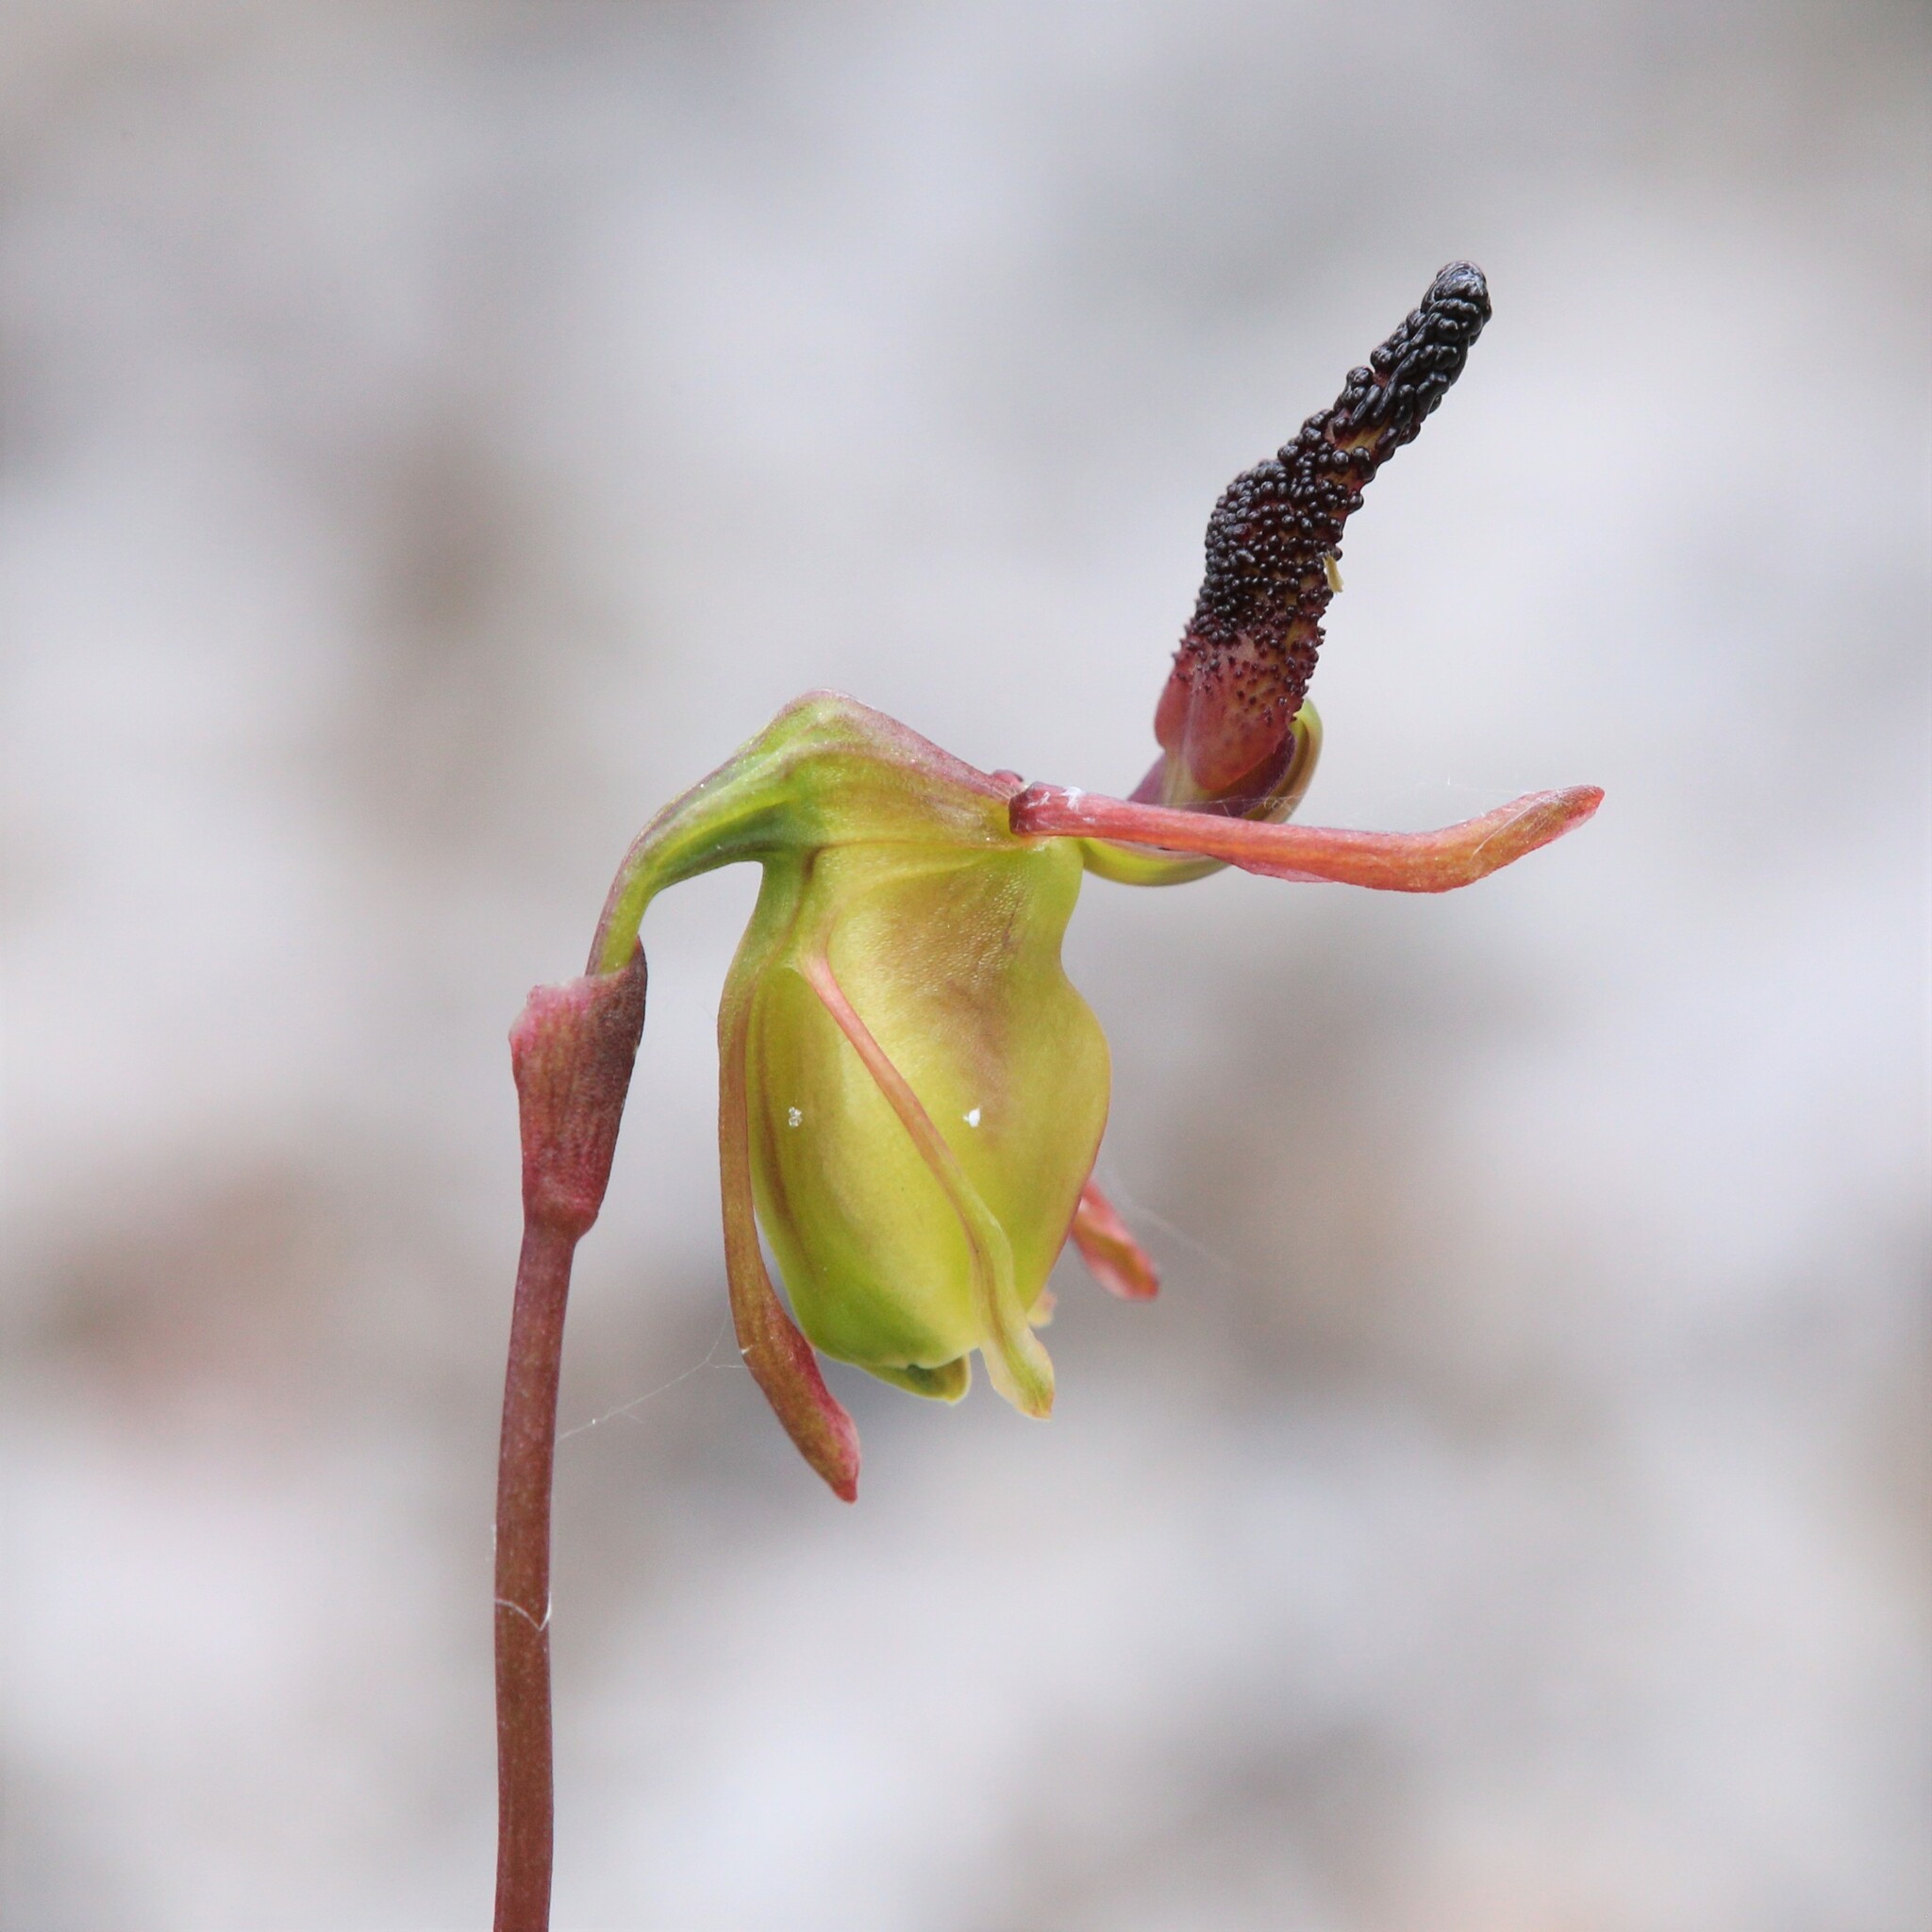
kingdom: Plantae
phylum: Tracheophyta
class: Liliopsida
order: Asparagales
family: Orchidaceae
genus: Caleana
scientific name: Caleana nigrita
